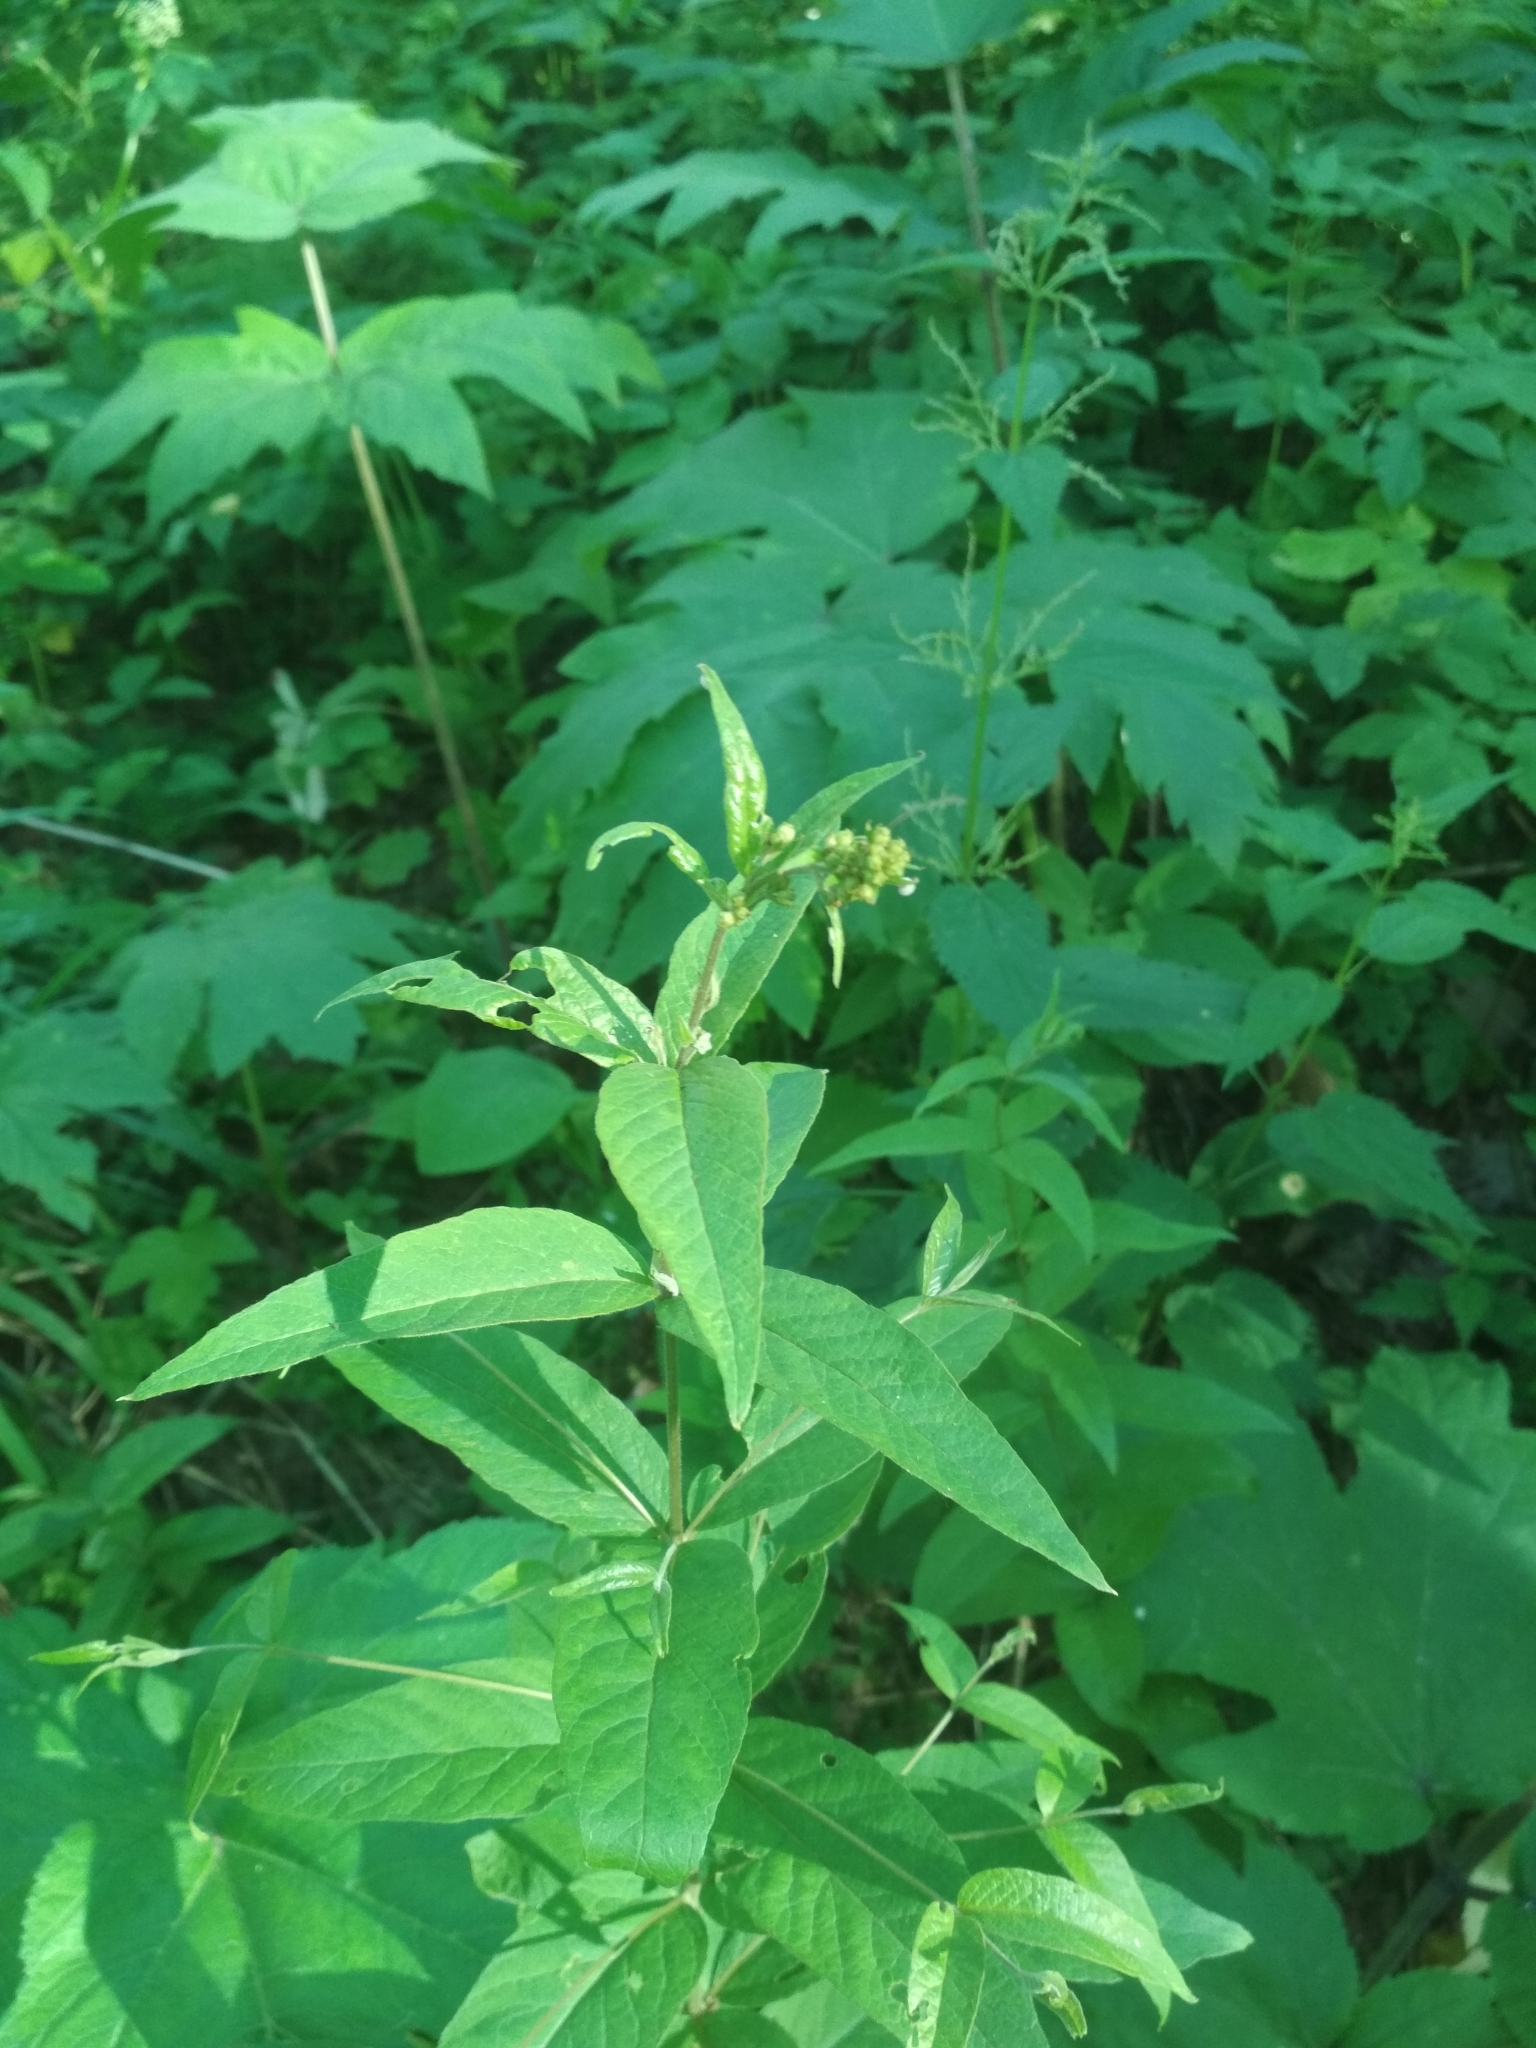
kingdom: Plantae
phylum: Tracheophyta
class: Magnoliopsida
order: Ericales
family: Primulaceae
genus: Lysimachia
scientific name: Lysimachia vulgaris
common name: Yellow loosestrife
